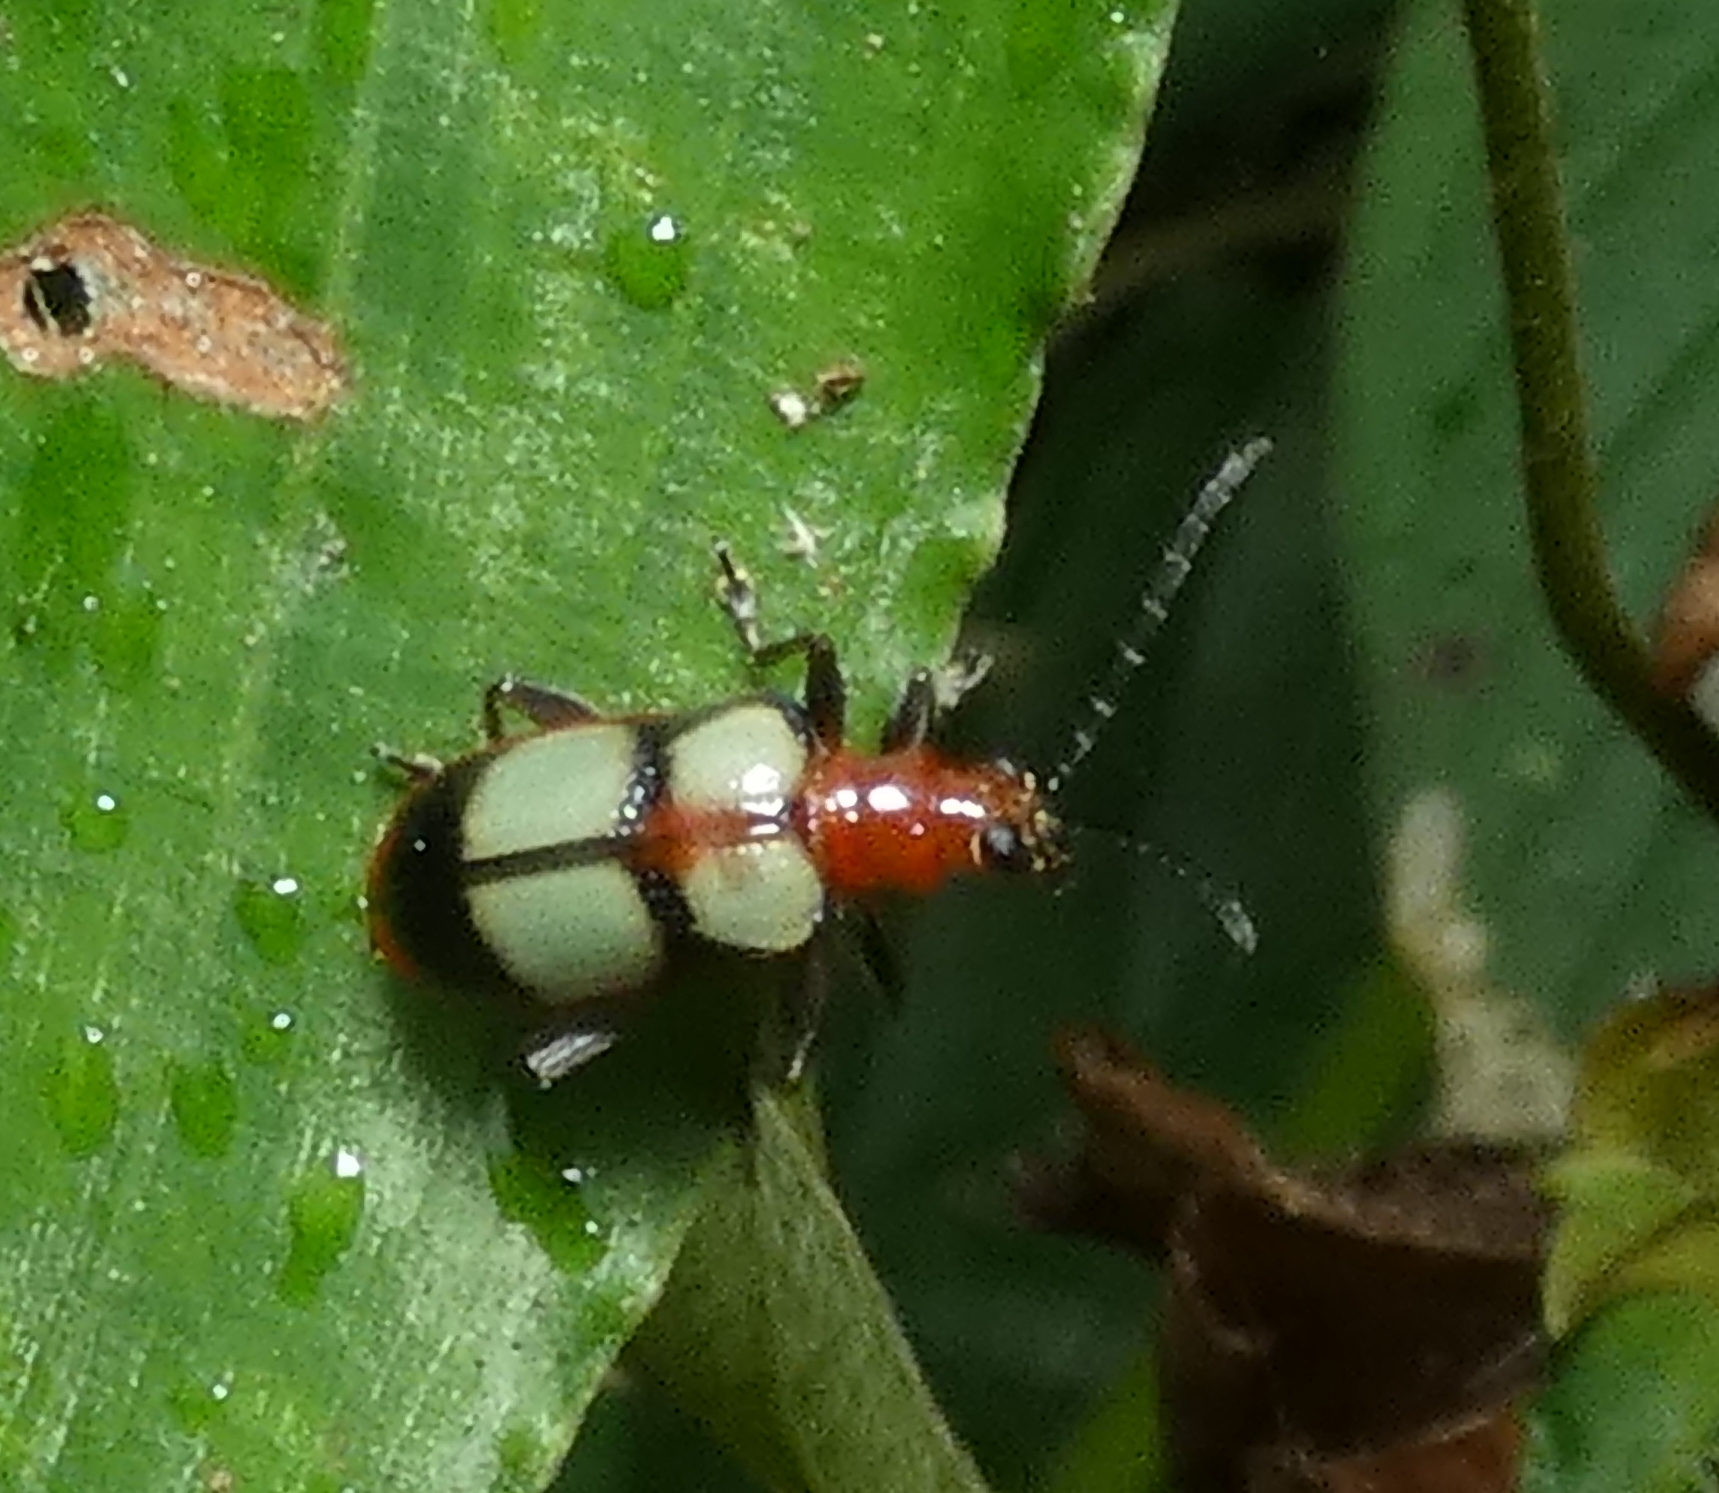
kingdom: Animalia
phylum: Arthropoda
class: Insecta
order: Coleoptera
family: Chrysomelidae
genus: Neolema
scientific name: Neolema
